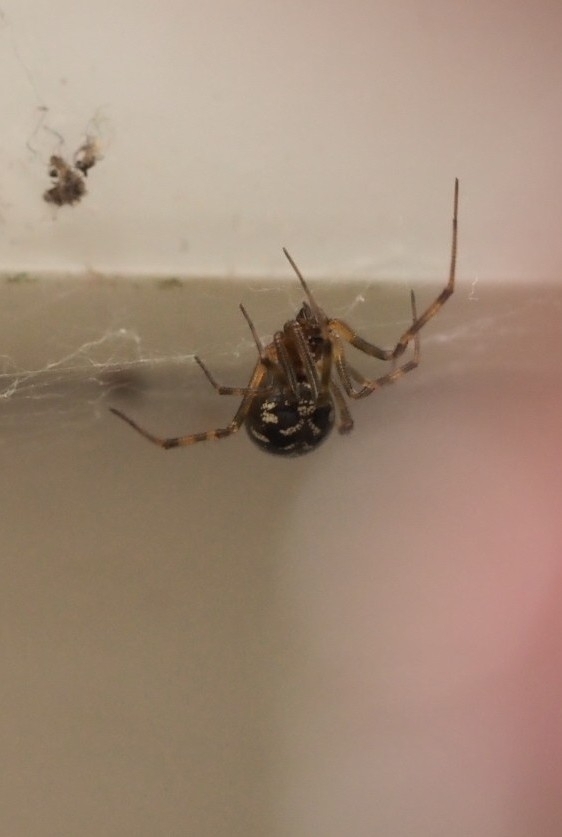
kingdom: Animalia
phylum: Arthropoda
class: Arachnida
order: Araneae
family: Theridiidae
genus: Steatoda
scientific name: Steatoda triangulosa
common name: Triangulate bud spider
